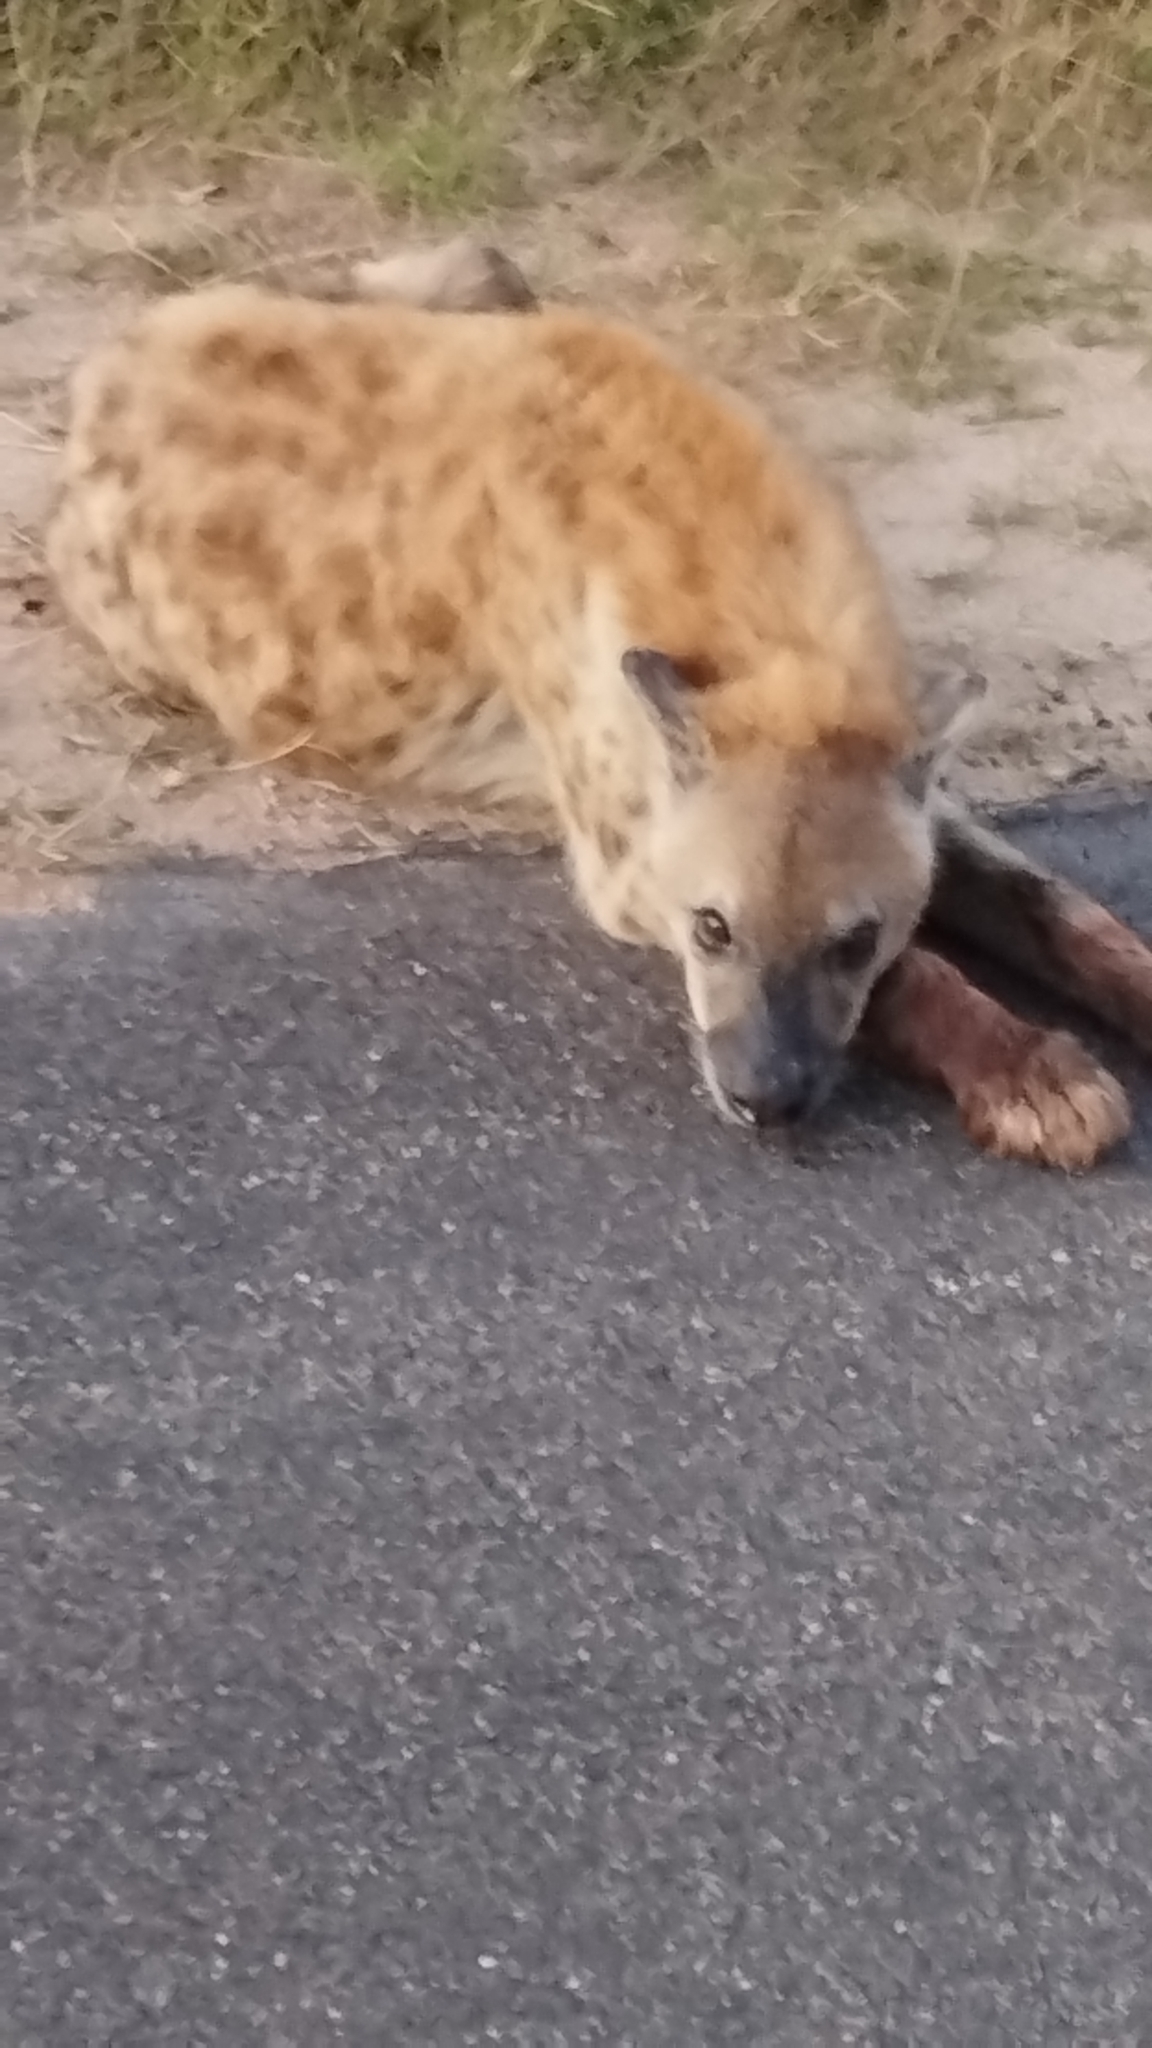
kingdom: Animalia
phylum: Chordata
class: Mammalia
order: Carnivora
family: Hyaenidae
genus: Crocuta
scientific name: Crocuta crocuta
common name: Spotted hyaena
